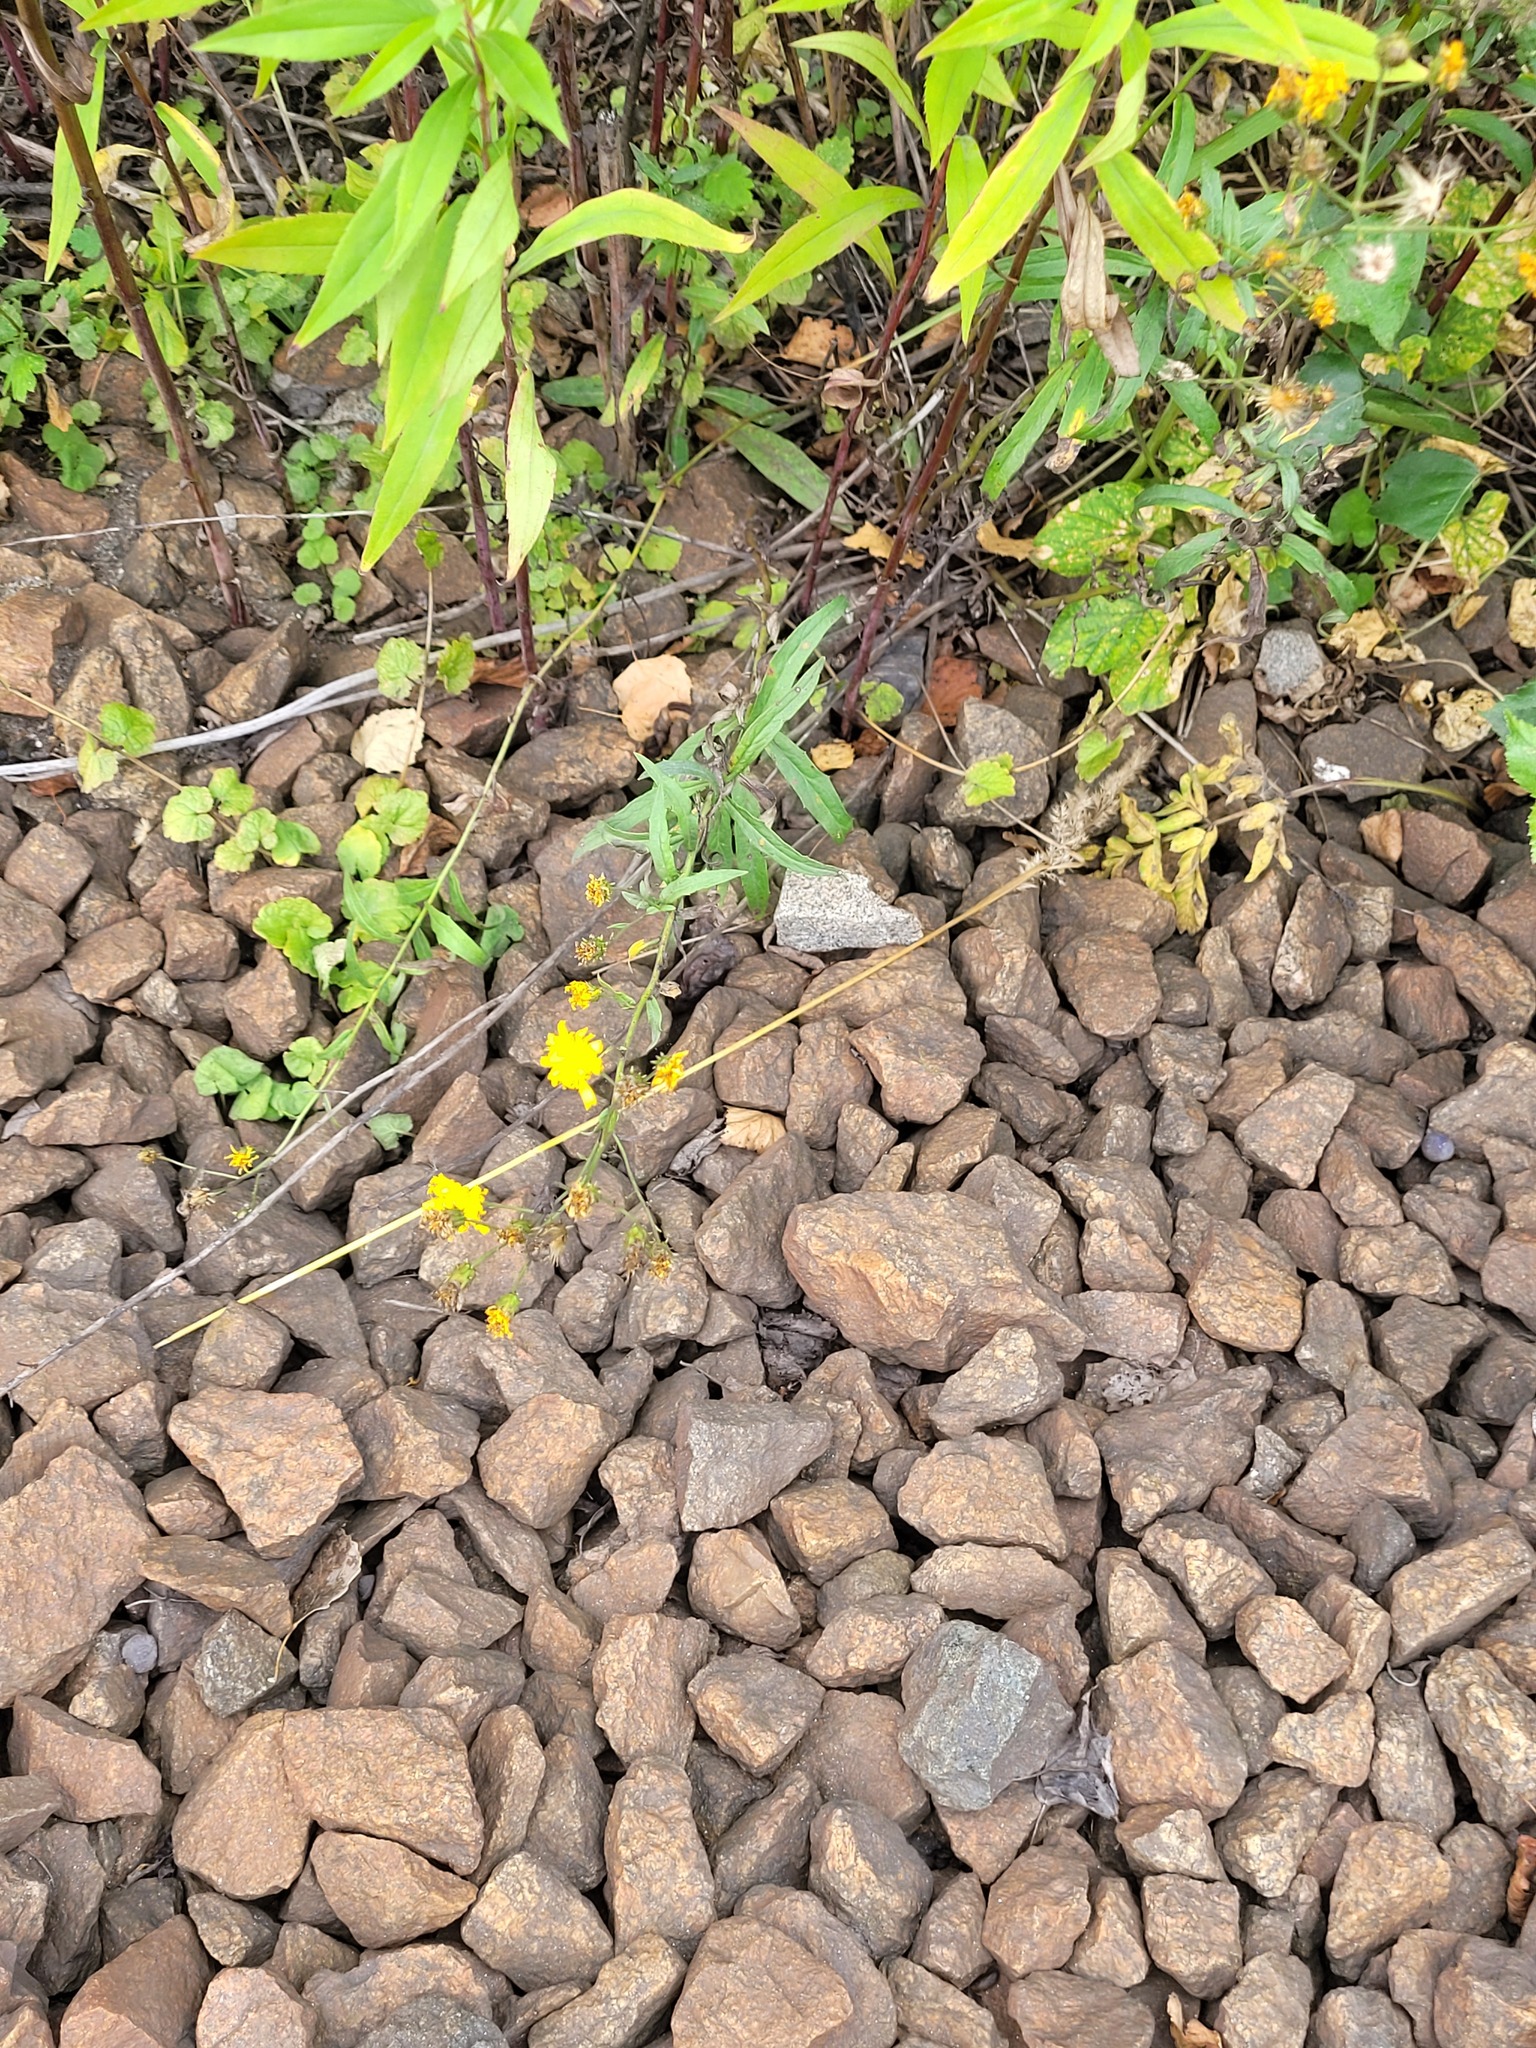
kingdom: Plantae
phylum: Tracheophyta
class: Magnoliopsida
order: Asterales
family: Asteraceae
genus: Hieracium
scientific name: Hieracium umbellatum
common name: Northern hawkweed
